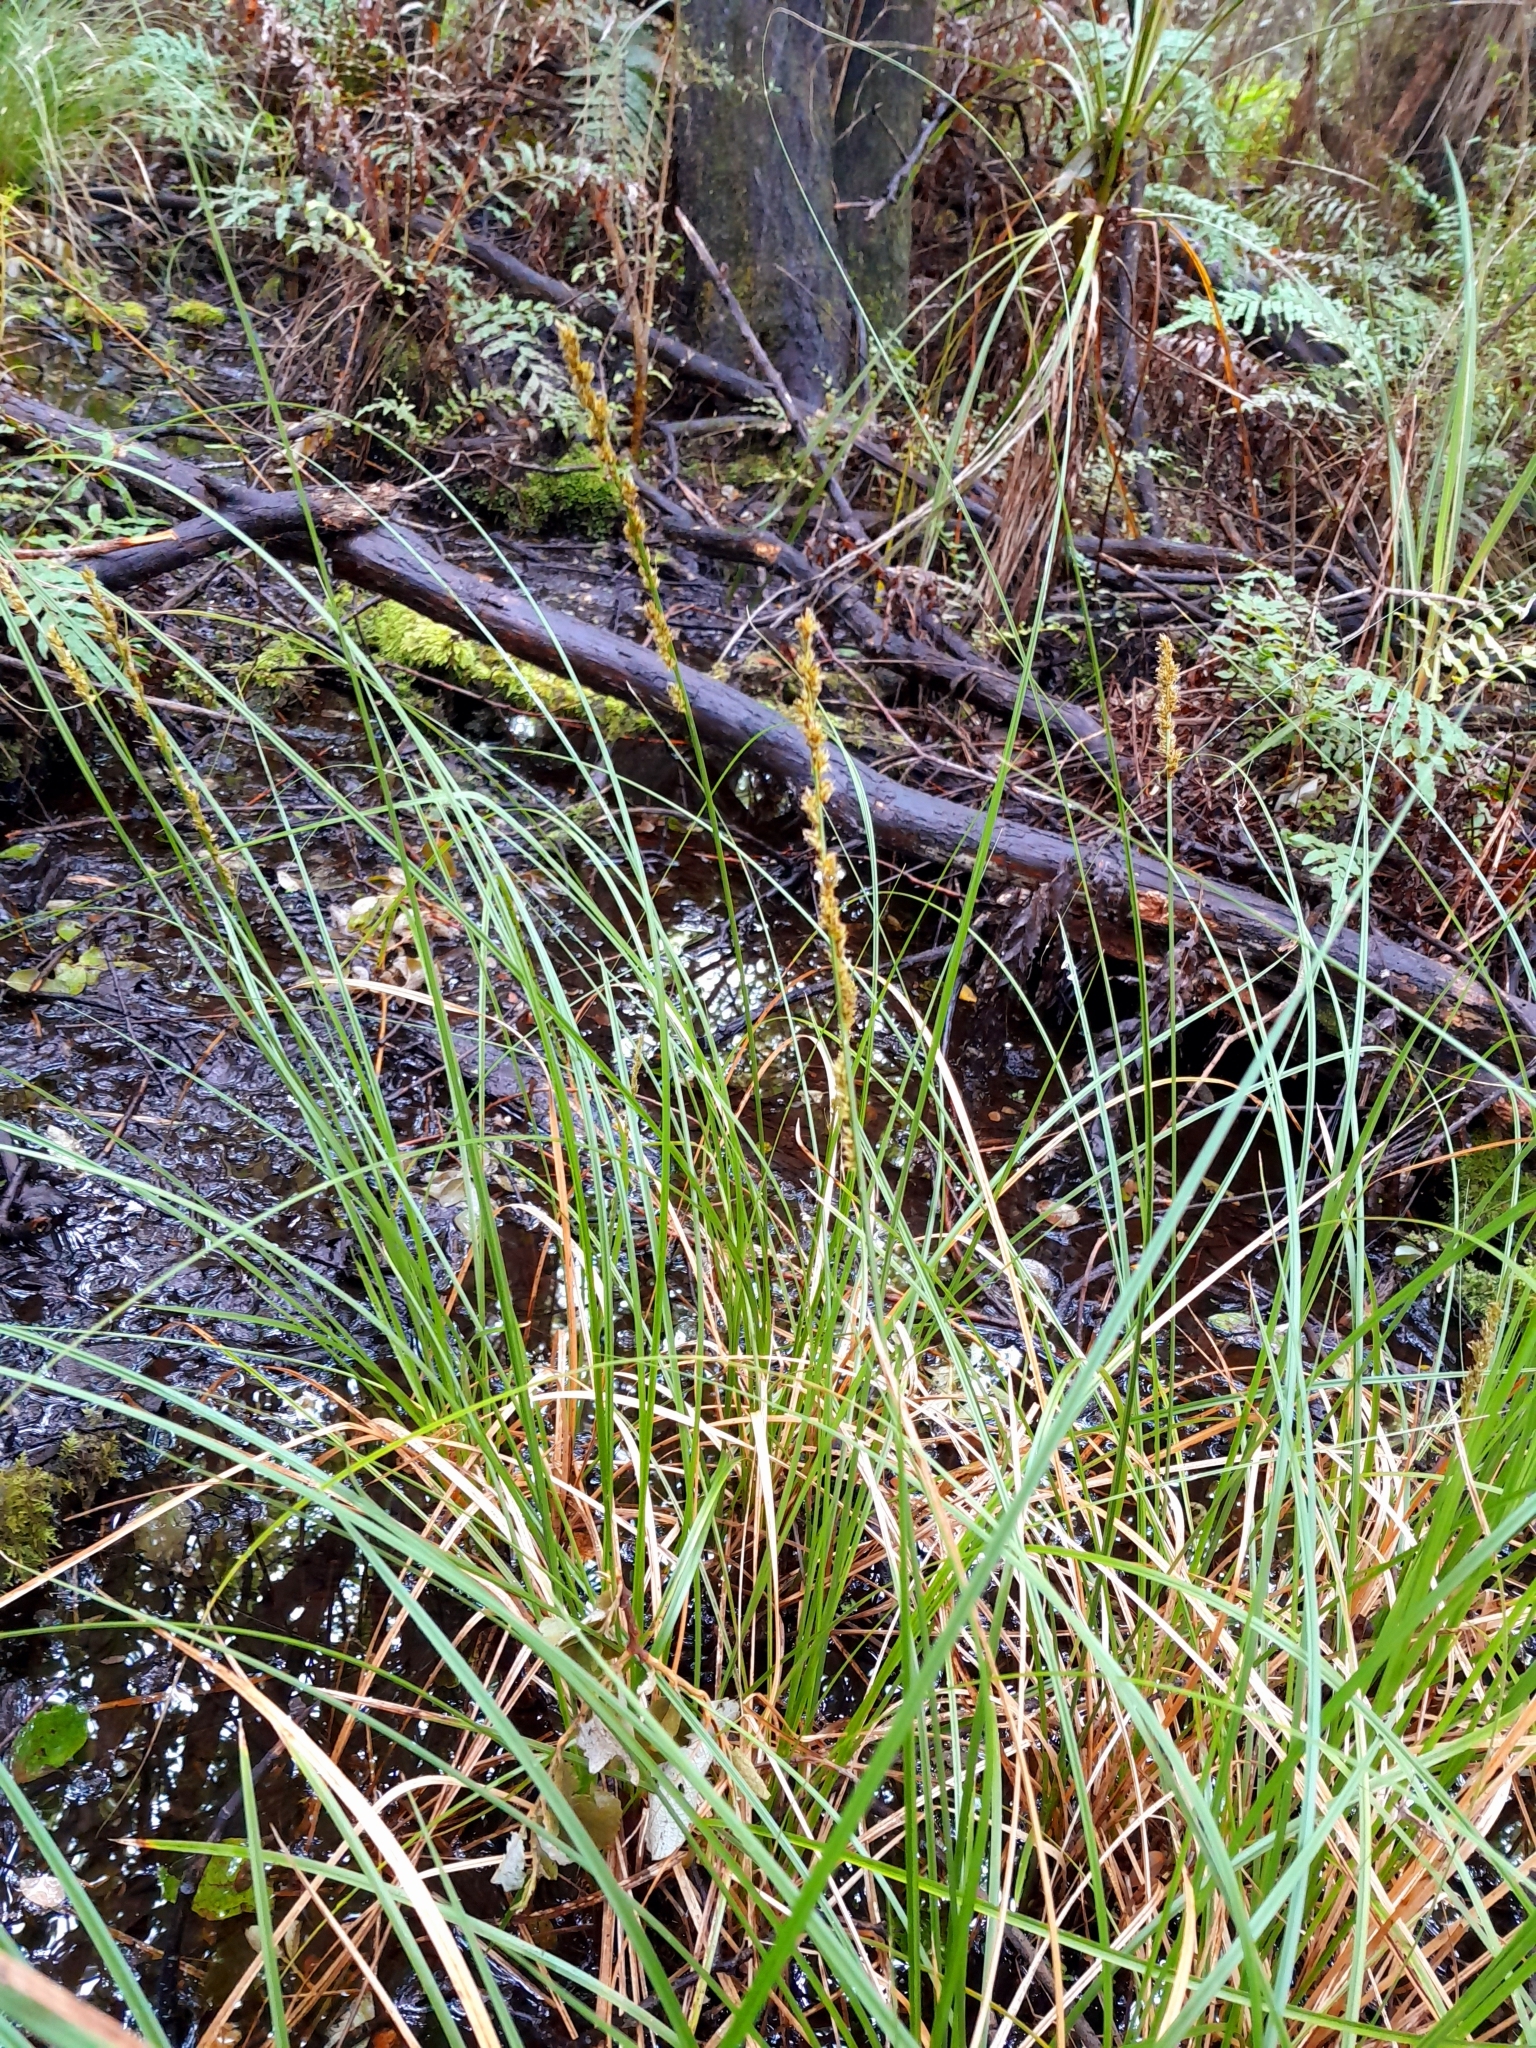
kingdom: Plantae
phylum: Tracheophyta
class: Liliopsida
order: Poales
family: Cyperaceae
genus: Carex
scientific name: Carex virgata
